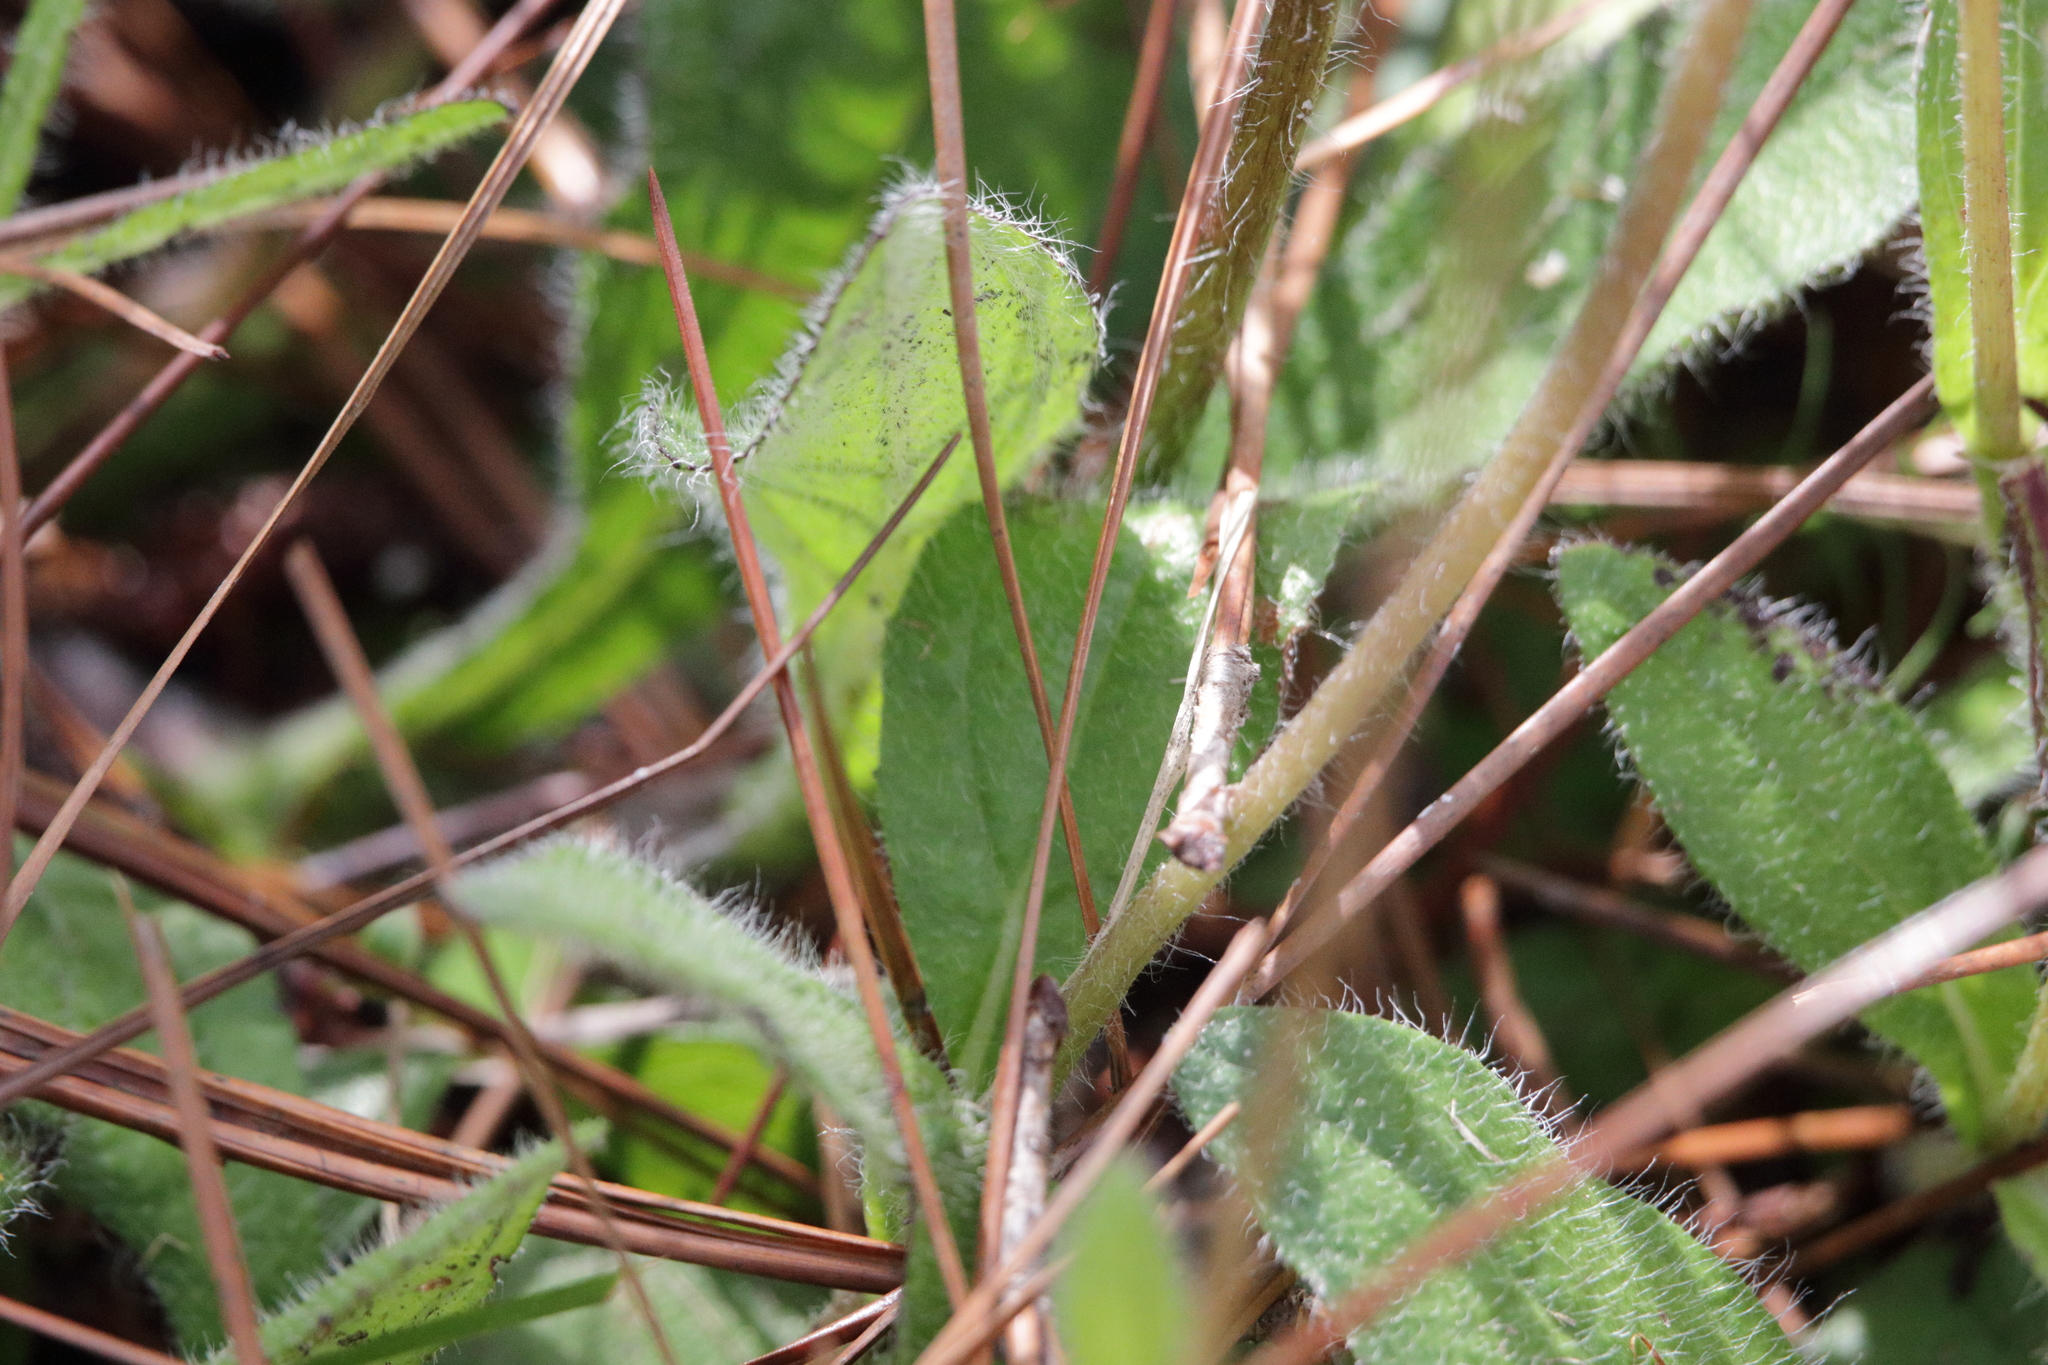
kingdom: Plantae
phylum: Tracheophyta
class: Magnoliopsida
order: Asterales
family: Asteraceae
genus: Helianthus
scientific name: Helianthus radula
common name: Pineland sunflower
